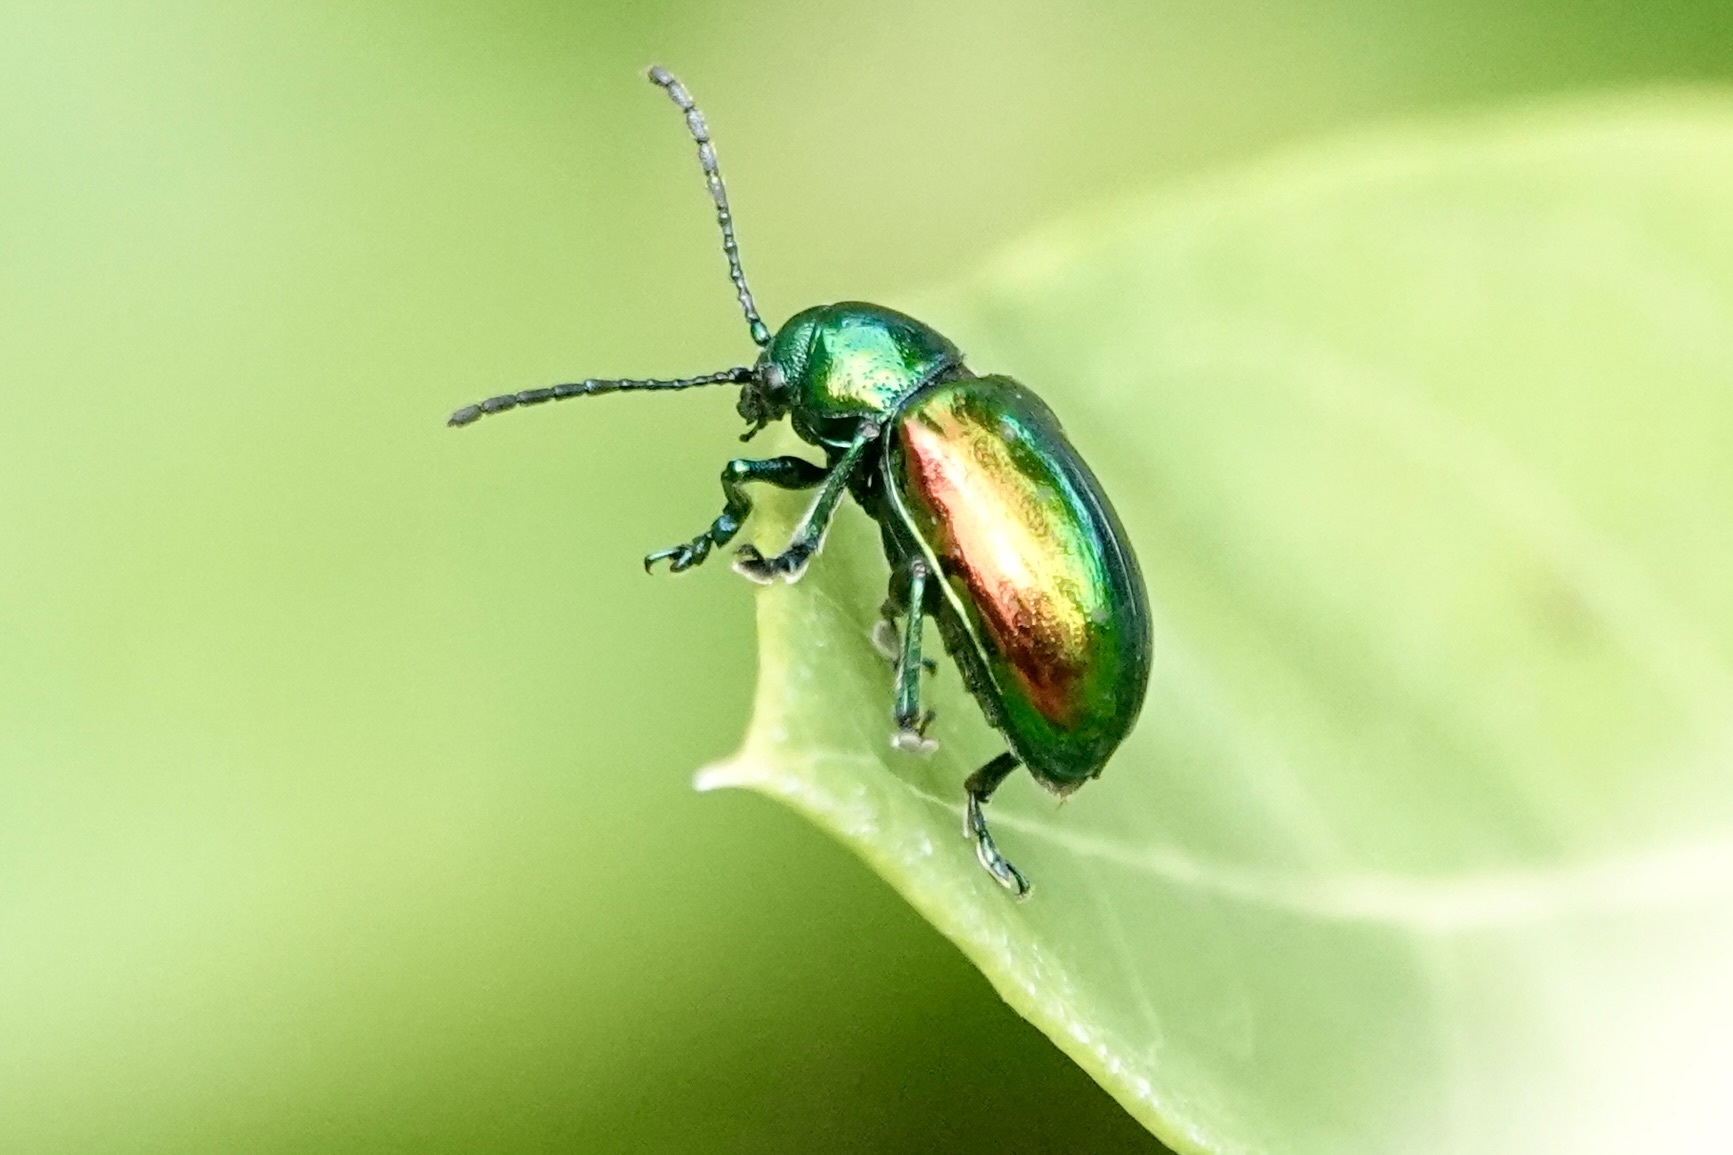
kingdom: Animalia
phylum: Arthropoda
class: Insecta
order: Coleoptera
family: Chrysomelidae
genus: Chrysochus
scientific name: Chrysochus auratus
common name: Dogbane leaf beetle
